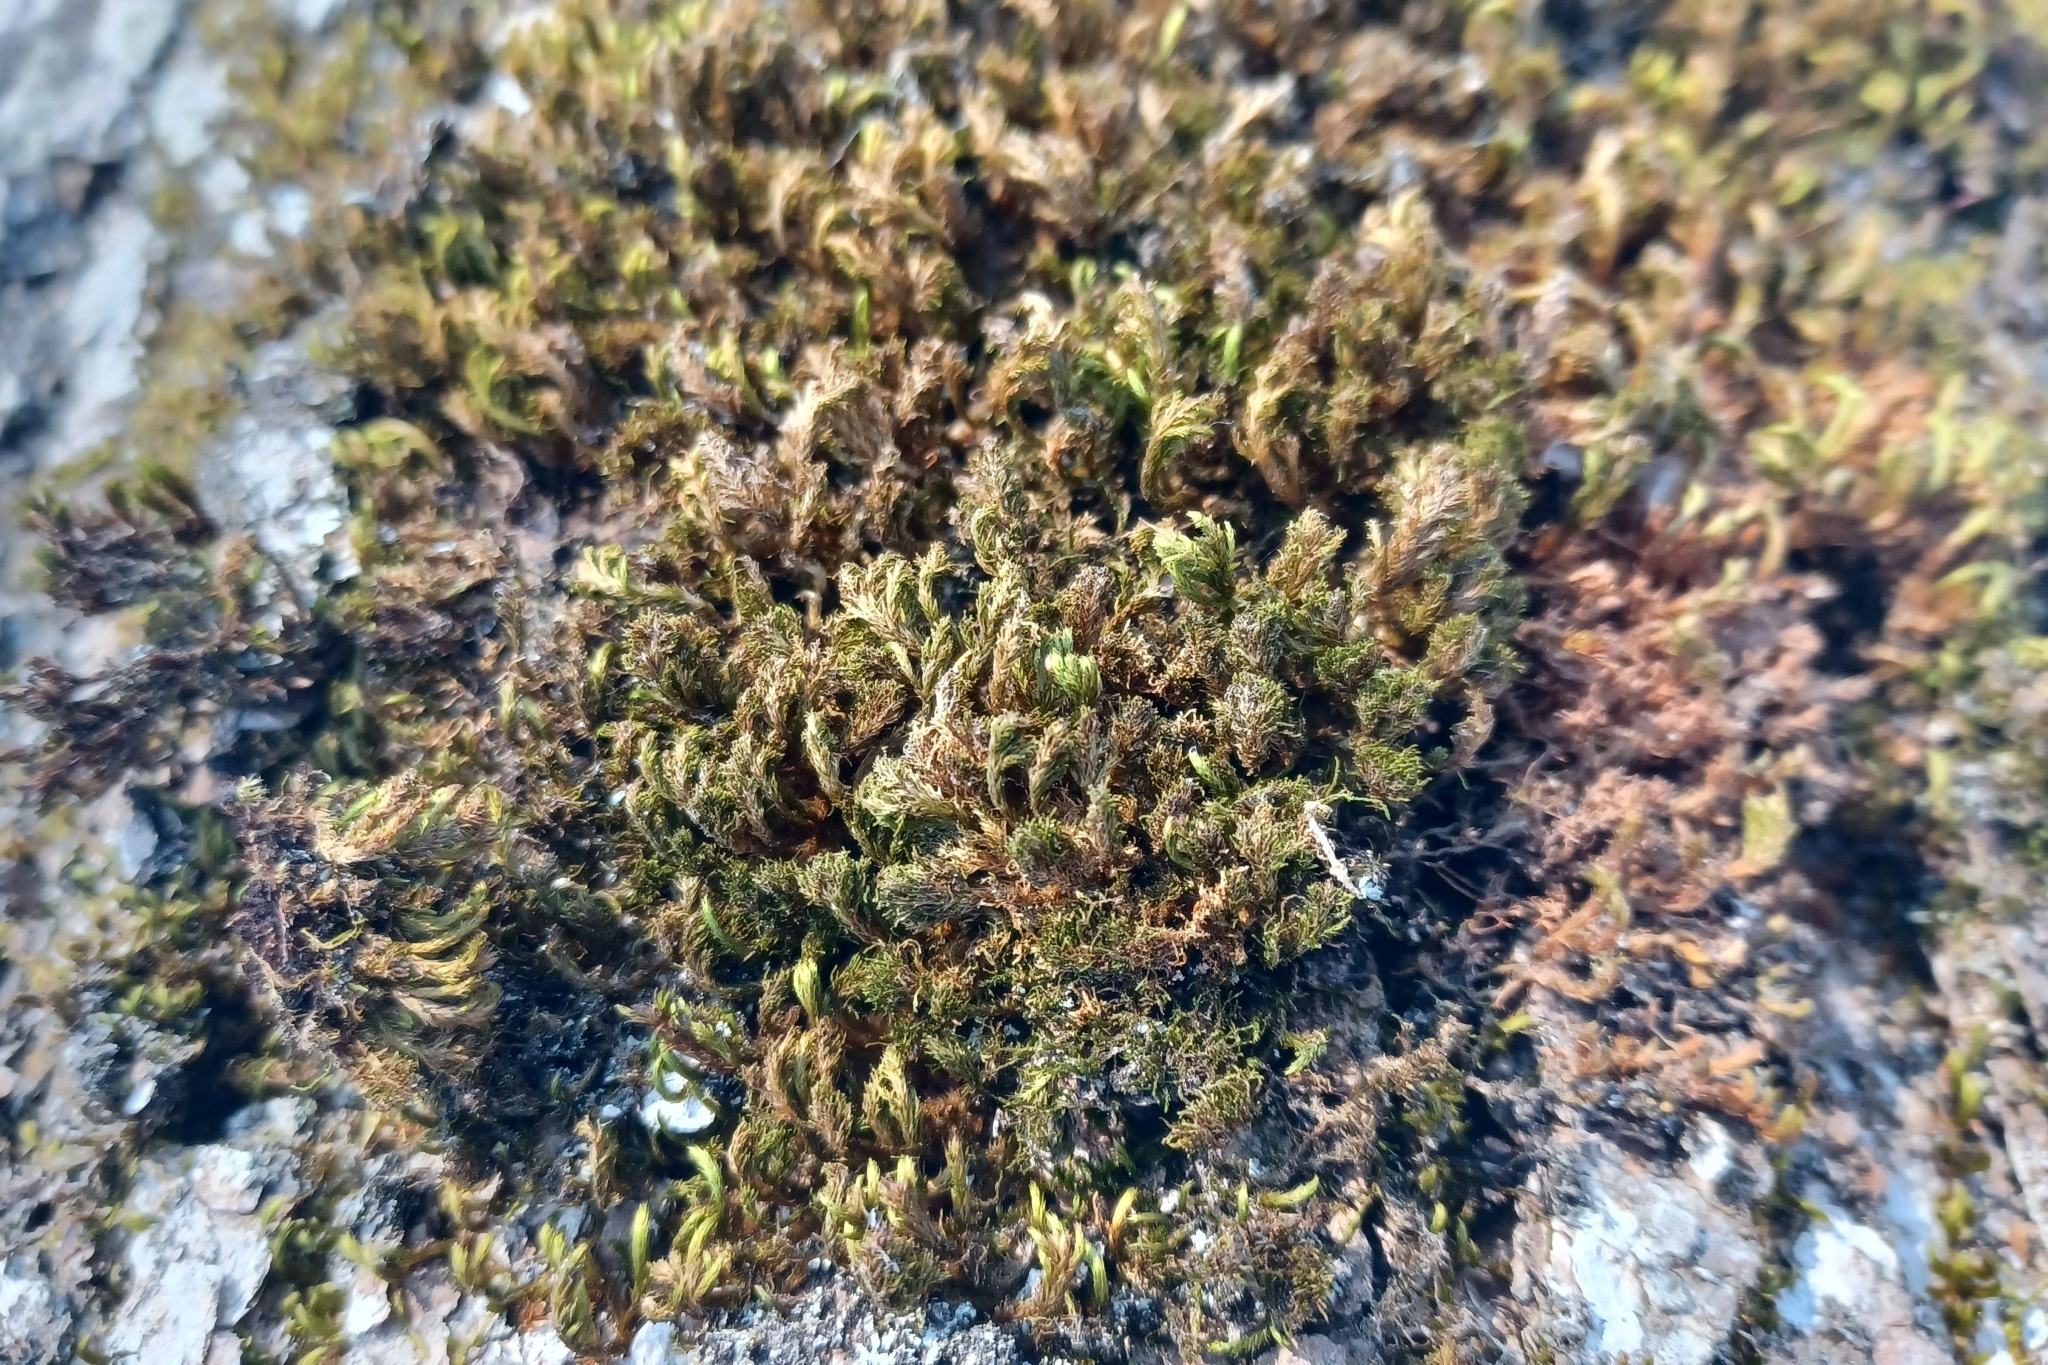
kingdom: Plantae
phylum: Bryophyta
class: Bryopsida
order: Hypnales
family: Leucodontaceae
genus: Leucodon
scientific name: Leucodon sciuroides
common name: Squirrel-tail moss
